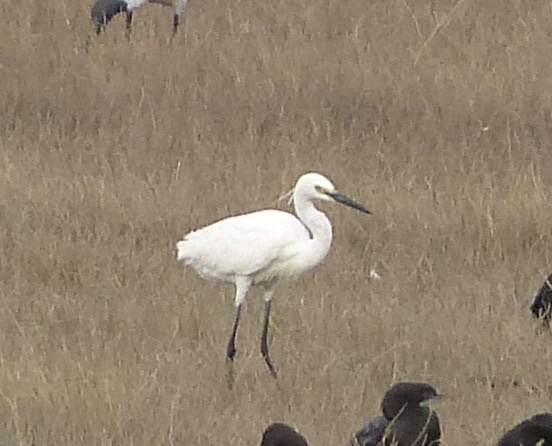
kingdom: Animalia
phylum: Chordata
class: Aves
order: Pelecaniformes
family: Ardeidae
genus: Egretta
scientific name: Egretta garzetta
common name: Little egret
